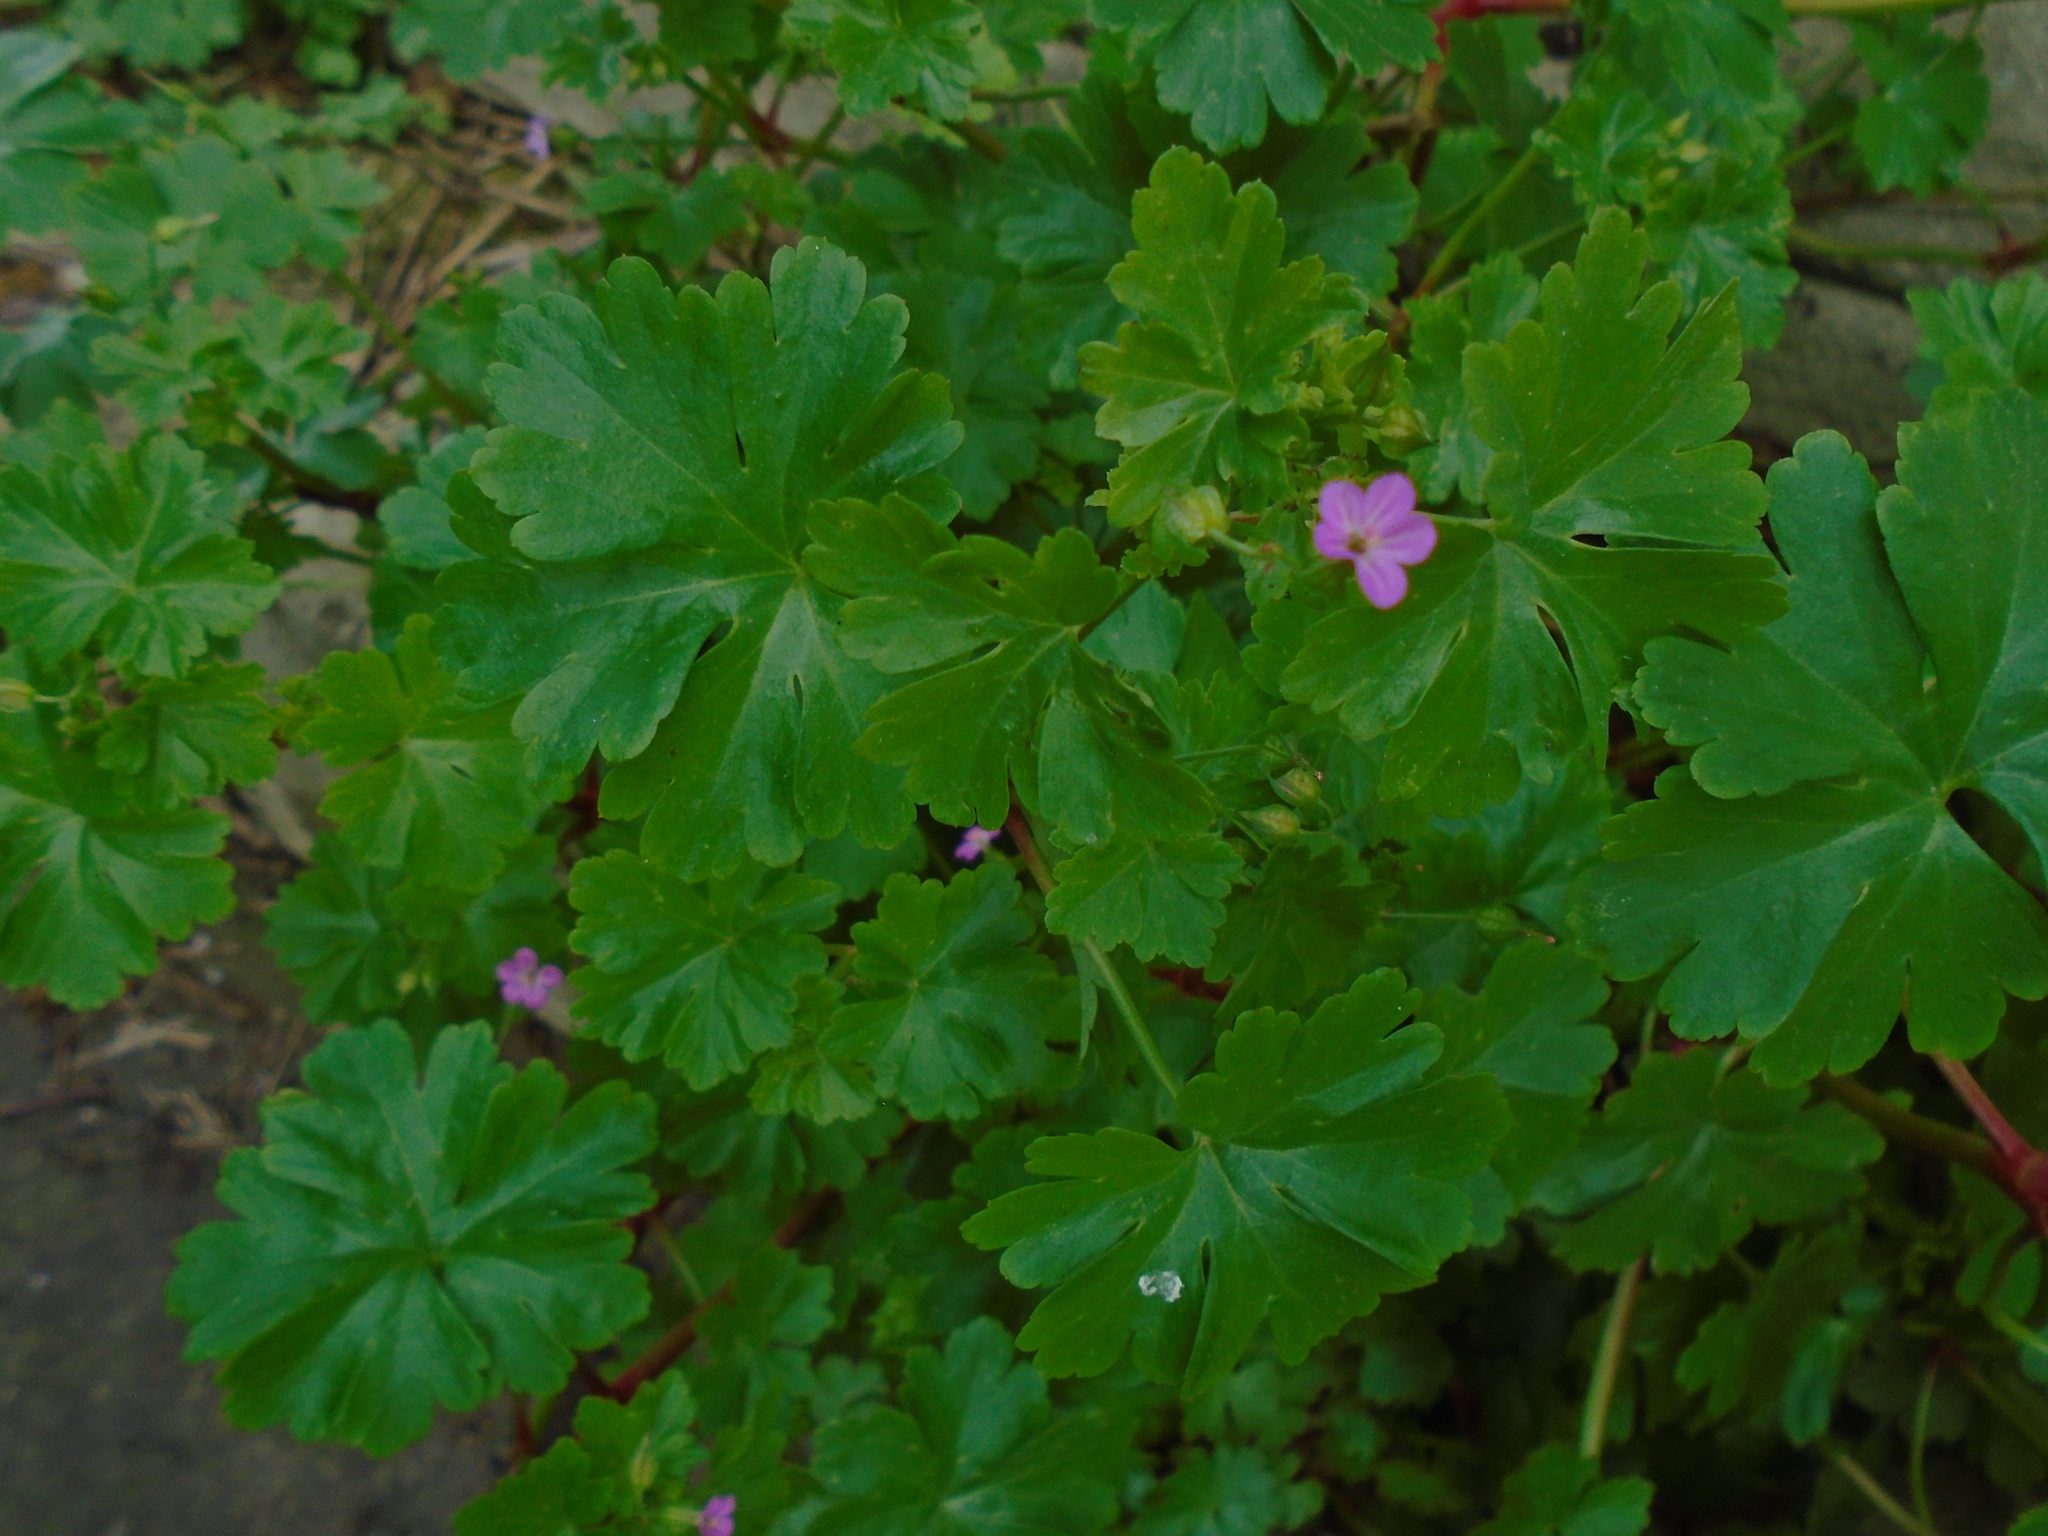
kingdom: Plantae
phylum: Tracheophyta
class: Magnoliopsida
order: Geraniales
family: Geraniaceae
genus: Geranium
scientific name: Geranium lucidum
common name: Shining crane's-bill
